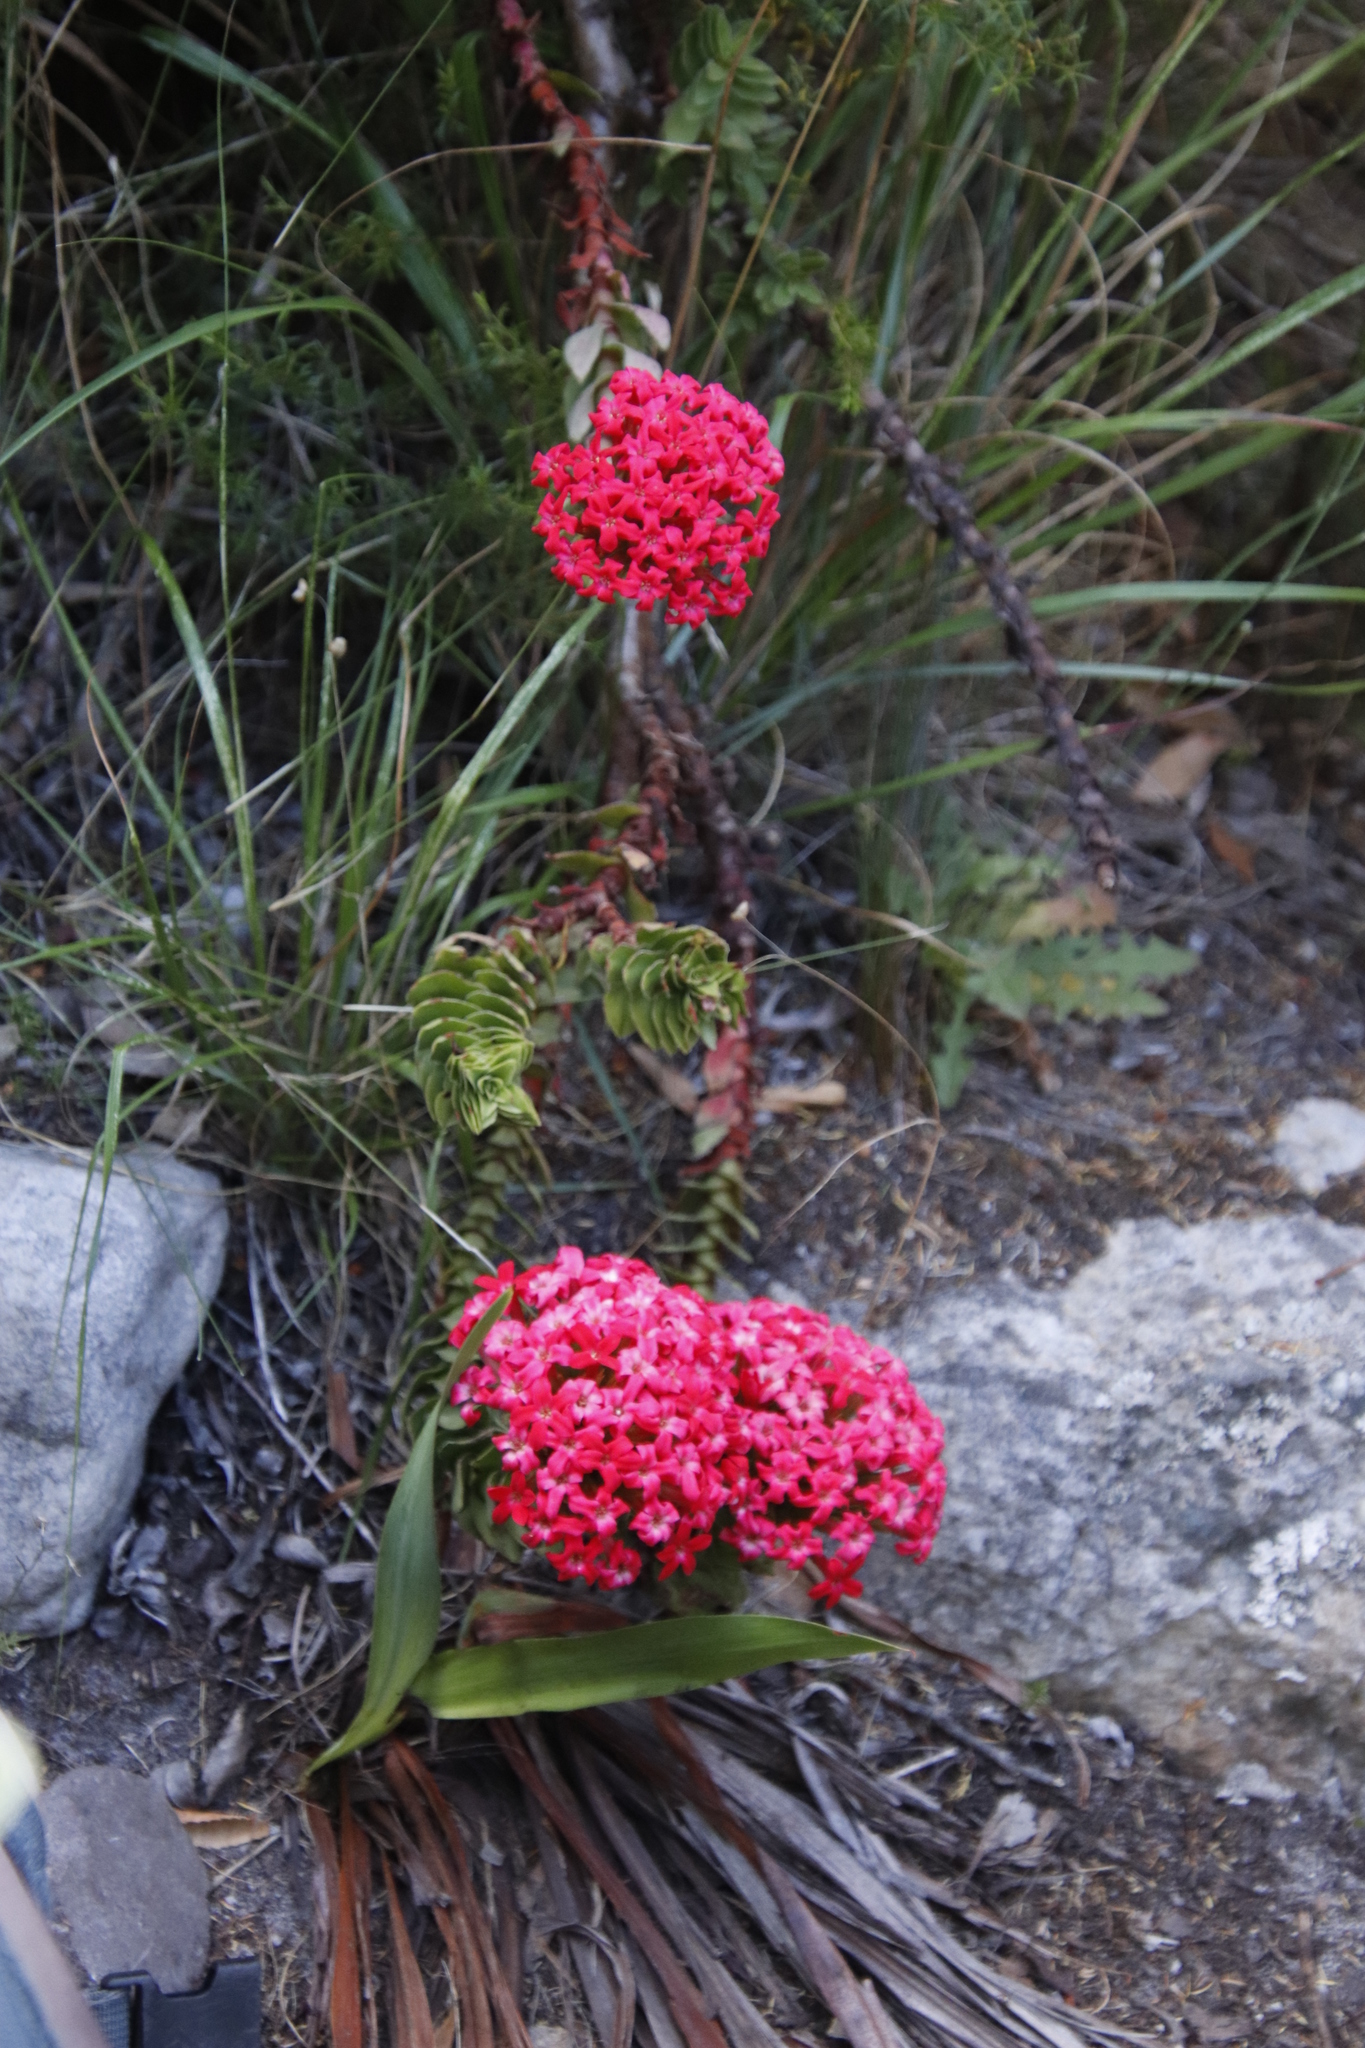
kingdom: Plantae
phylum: Tracheophyta
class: Magnoliopsida
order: Saxifragales
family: Crassulaceae
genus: Crassula
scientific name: Crassula coccinea
